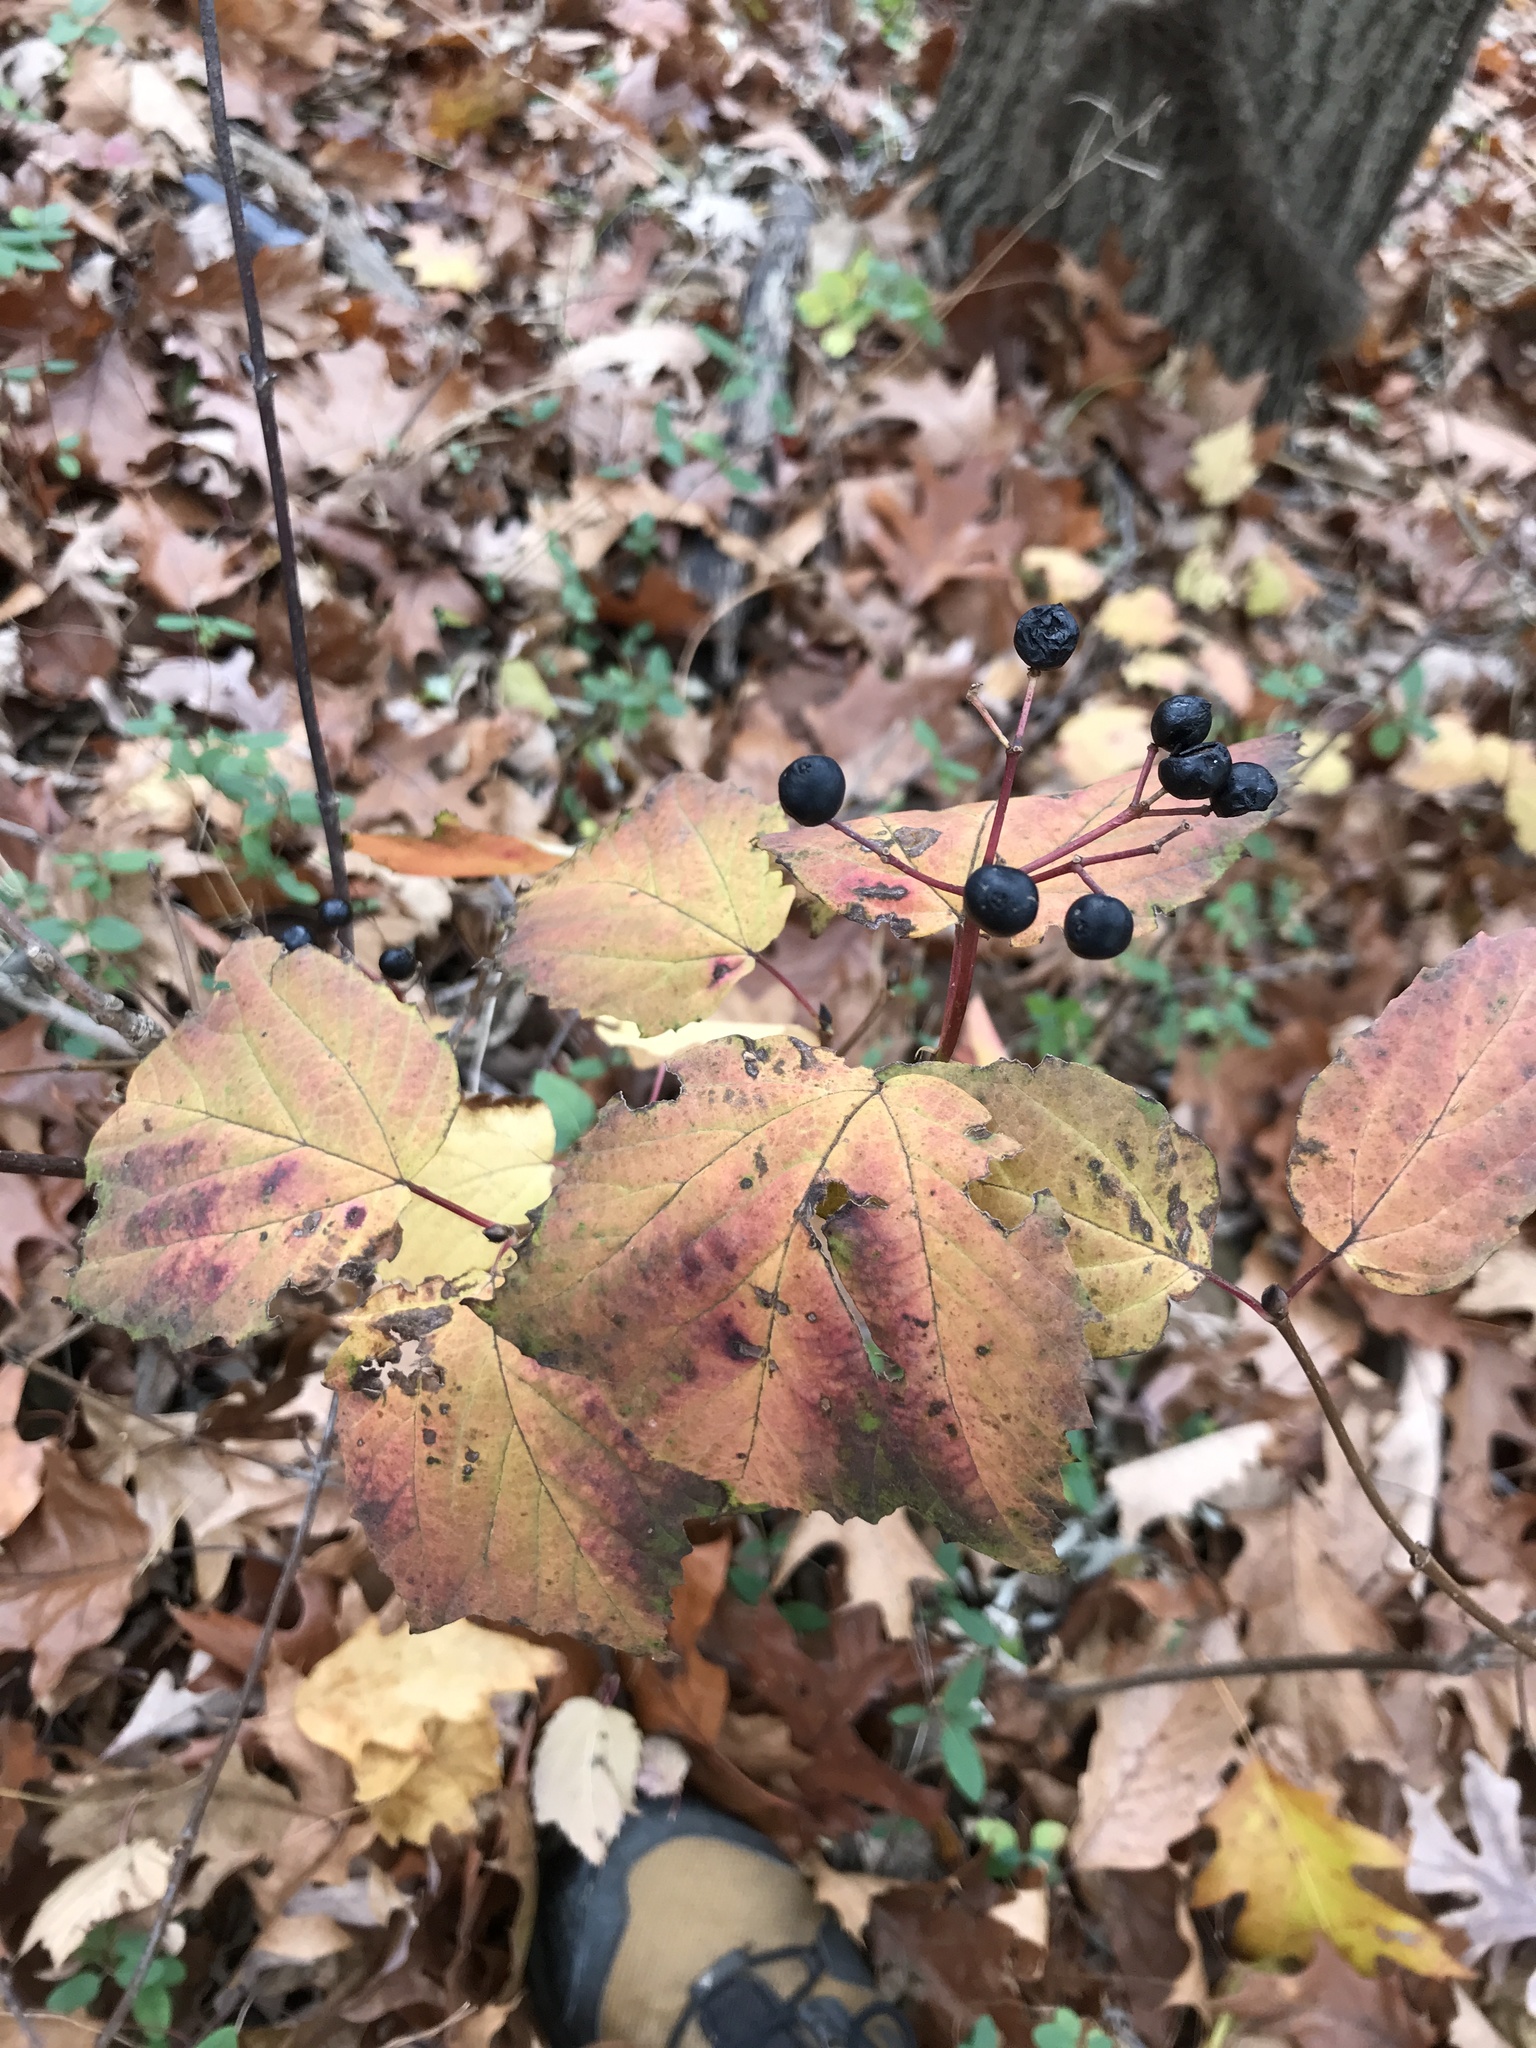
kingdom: Plantae
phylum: Tracheophyta
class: Magnoliopsida
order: Dipsacales
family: Viburnaceae
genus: Viburnum
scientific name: Viburnum acerifolium
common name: Dockmackie
